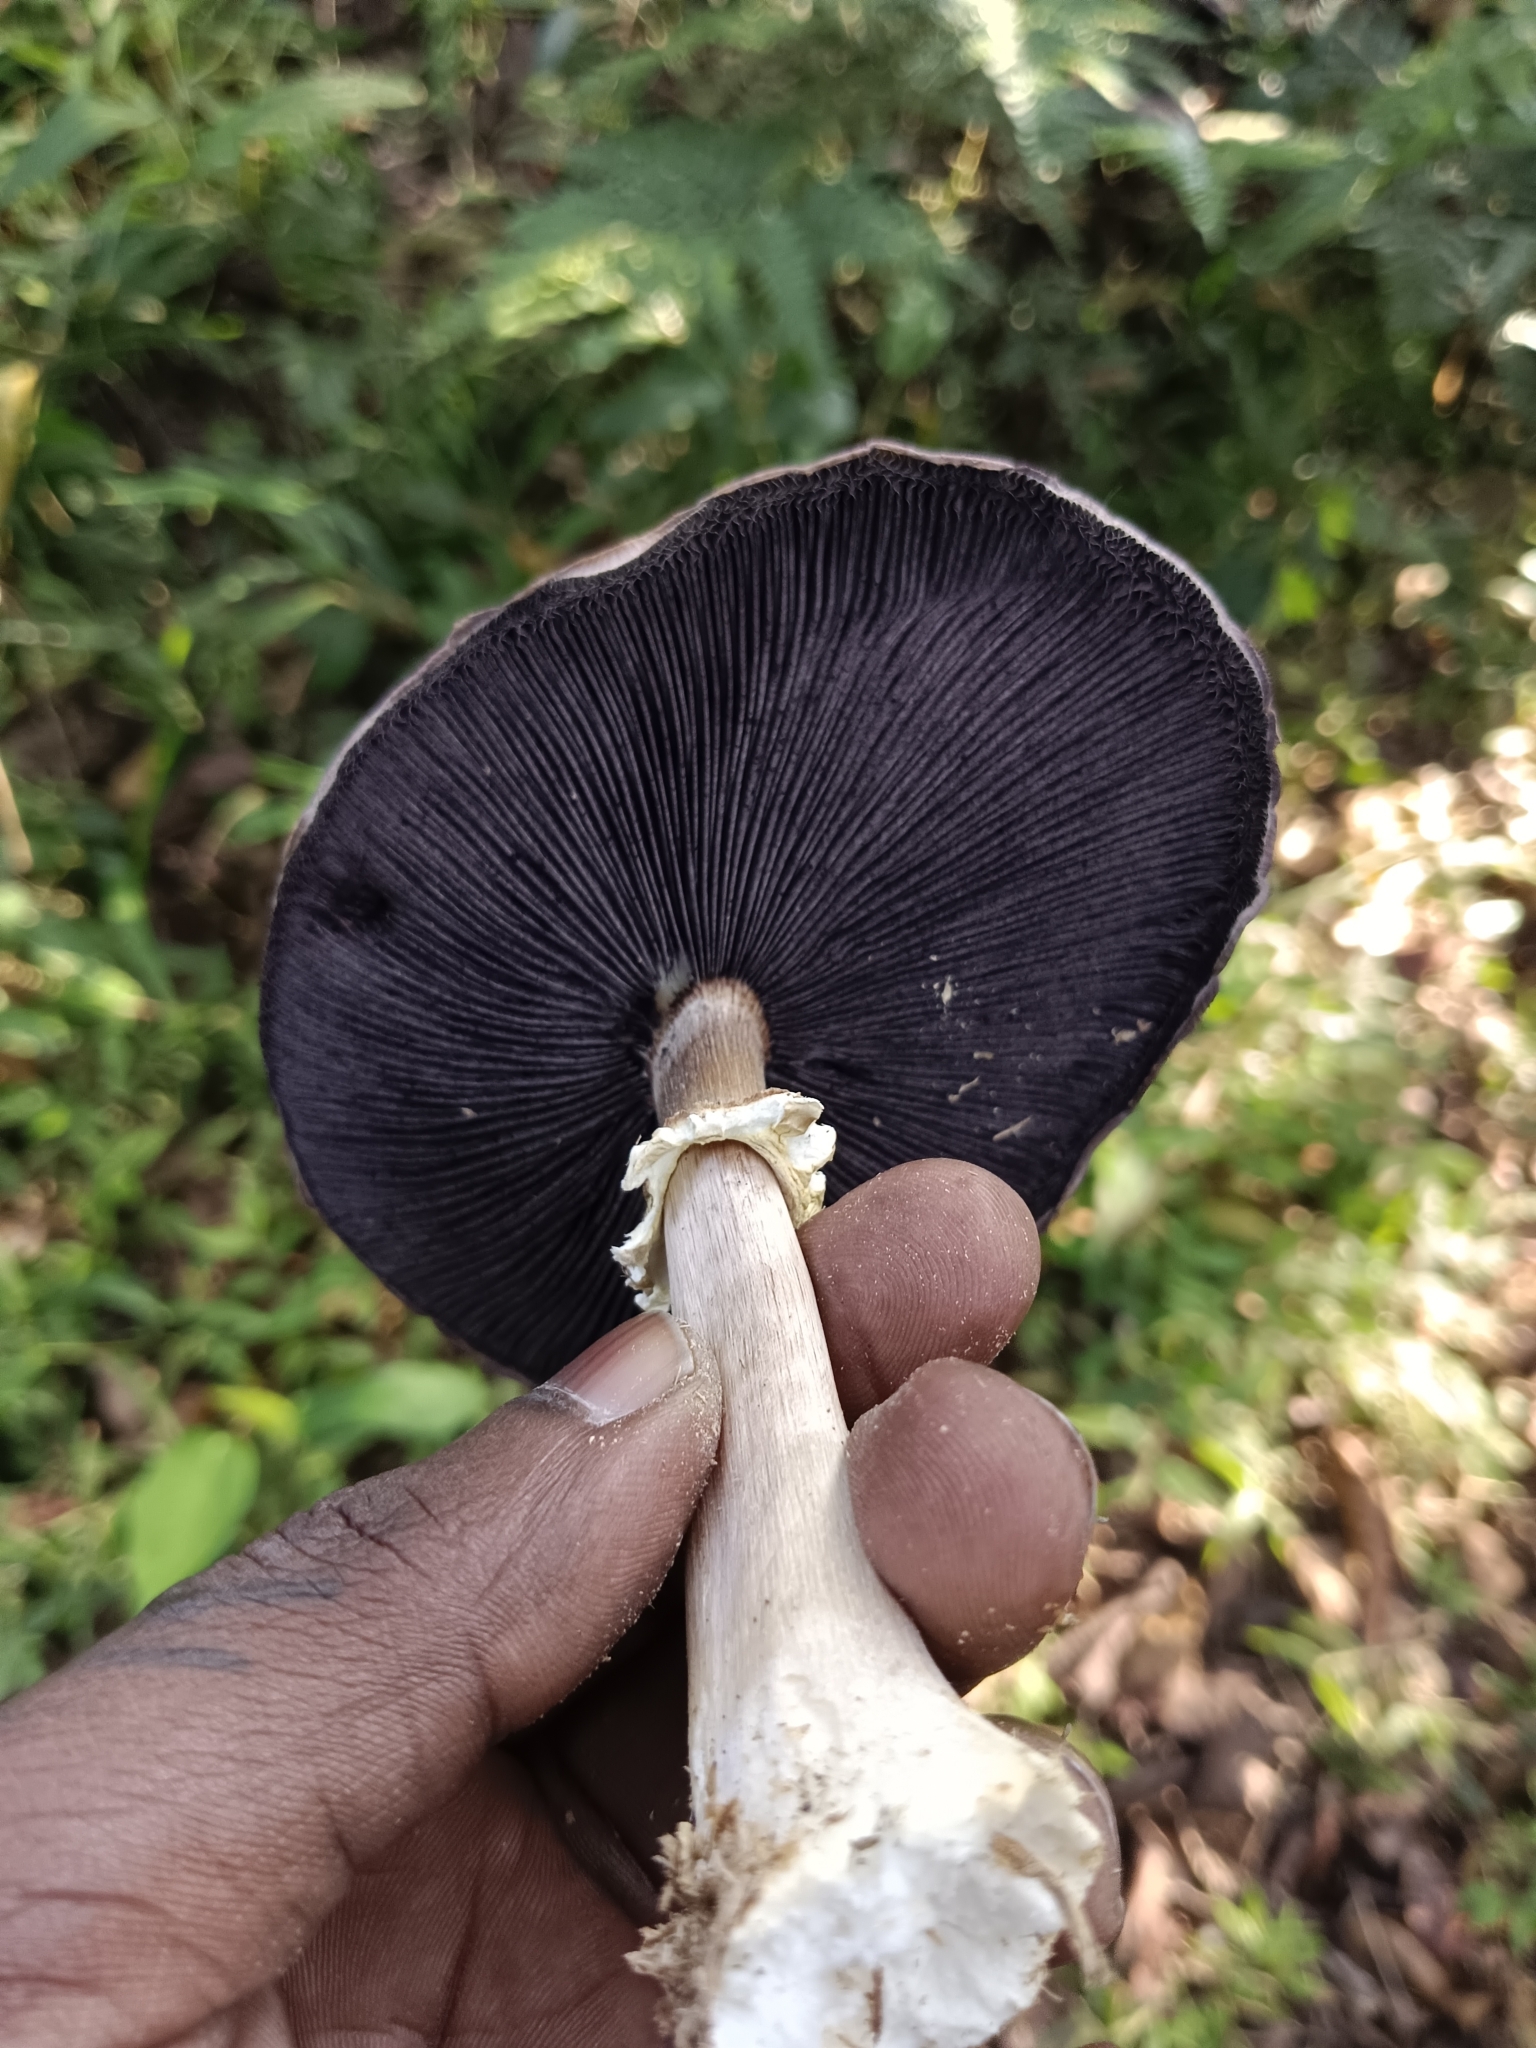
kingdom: Fungi
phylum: Basidiomycota
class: Agaricomycetes
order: Agaricales
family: Strophariaceae
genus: Stropharia
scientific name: Stropharia rugosoannulata
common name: Wine roundhead
